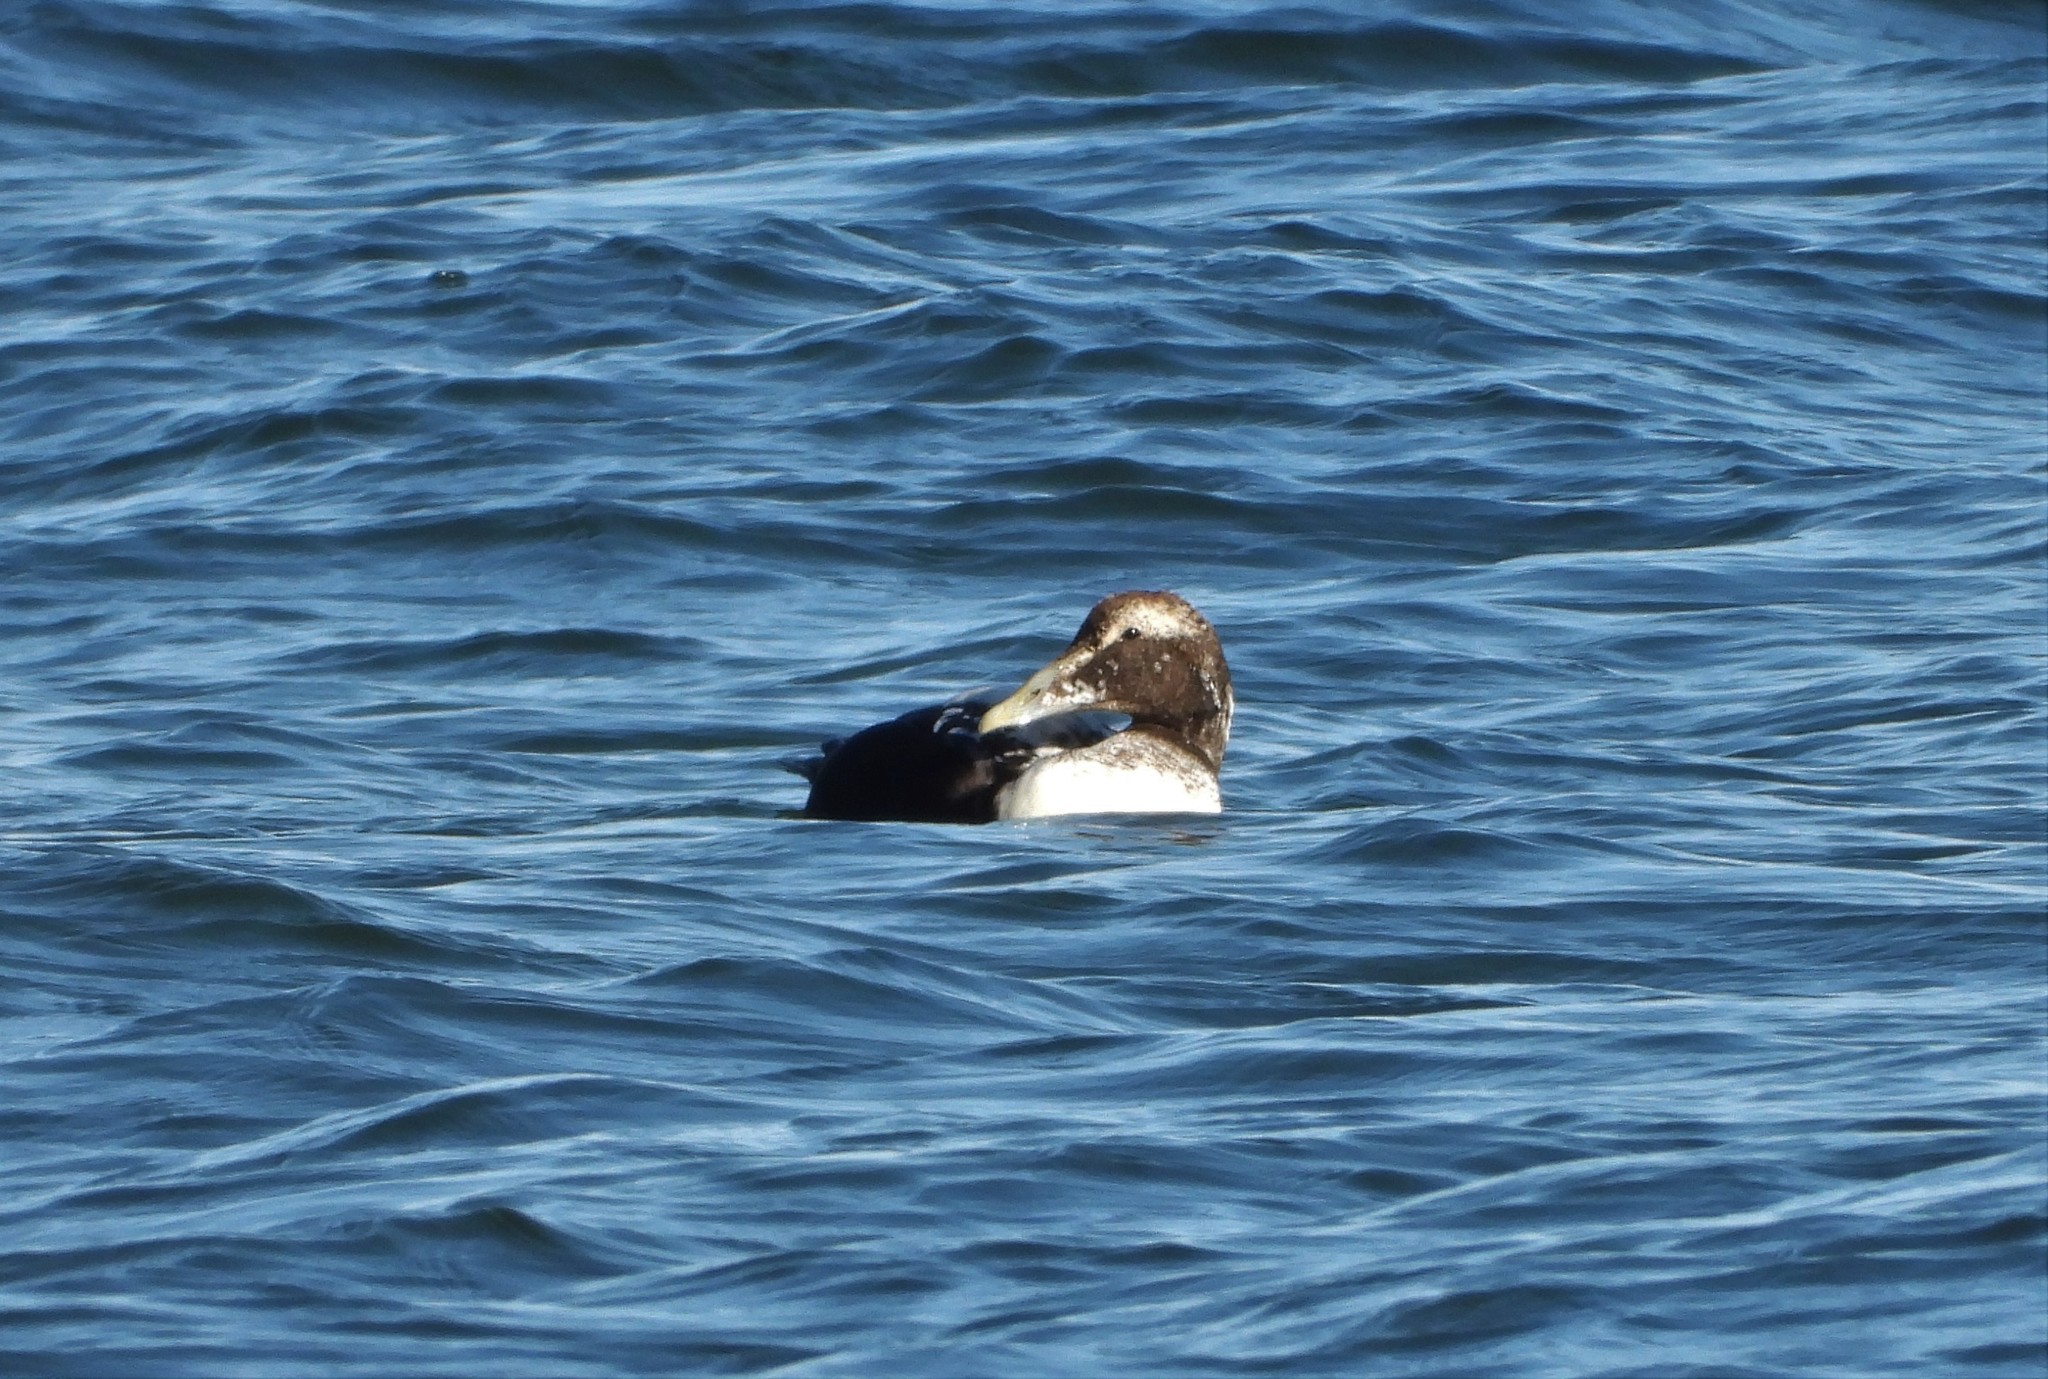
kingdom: Animalia
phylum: Chordata
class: Aves
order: Anseriformes
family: Anatidae
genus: Somateria
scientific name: Somateria mollissima
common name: Common eider
